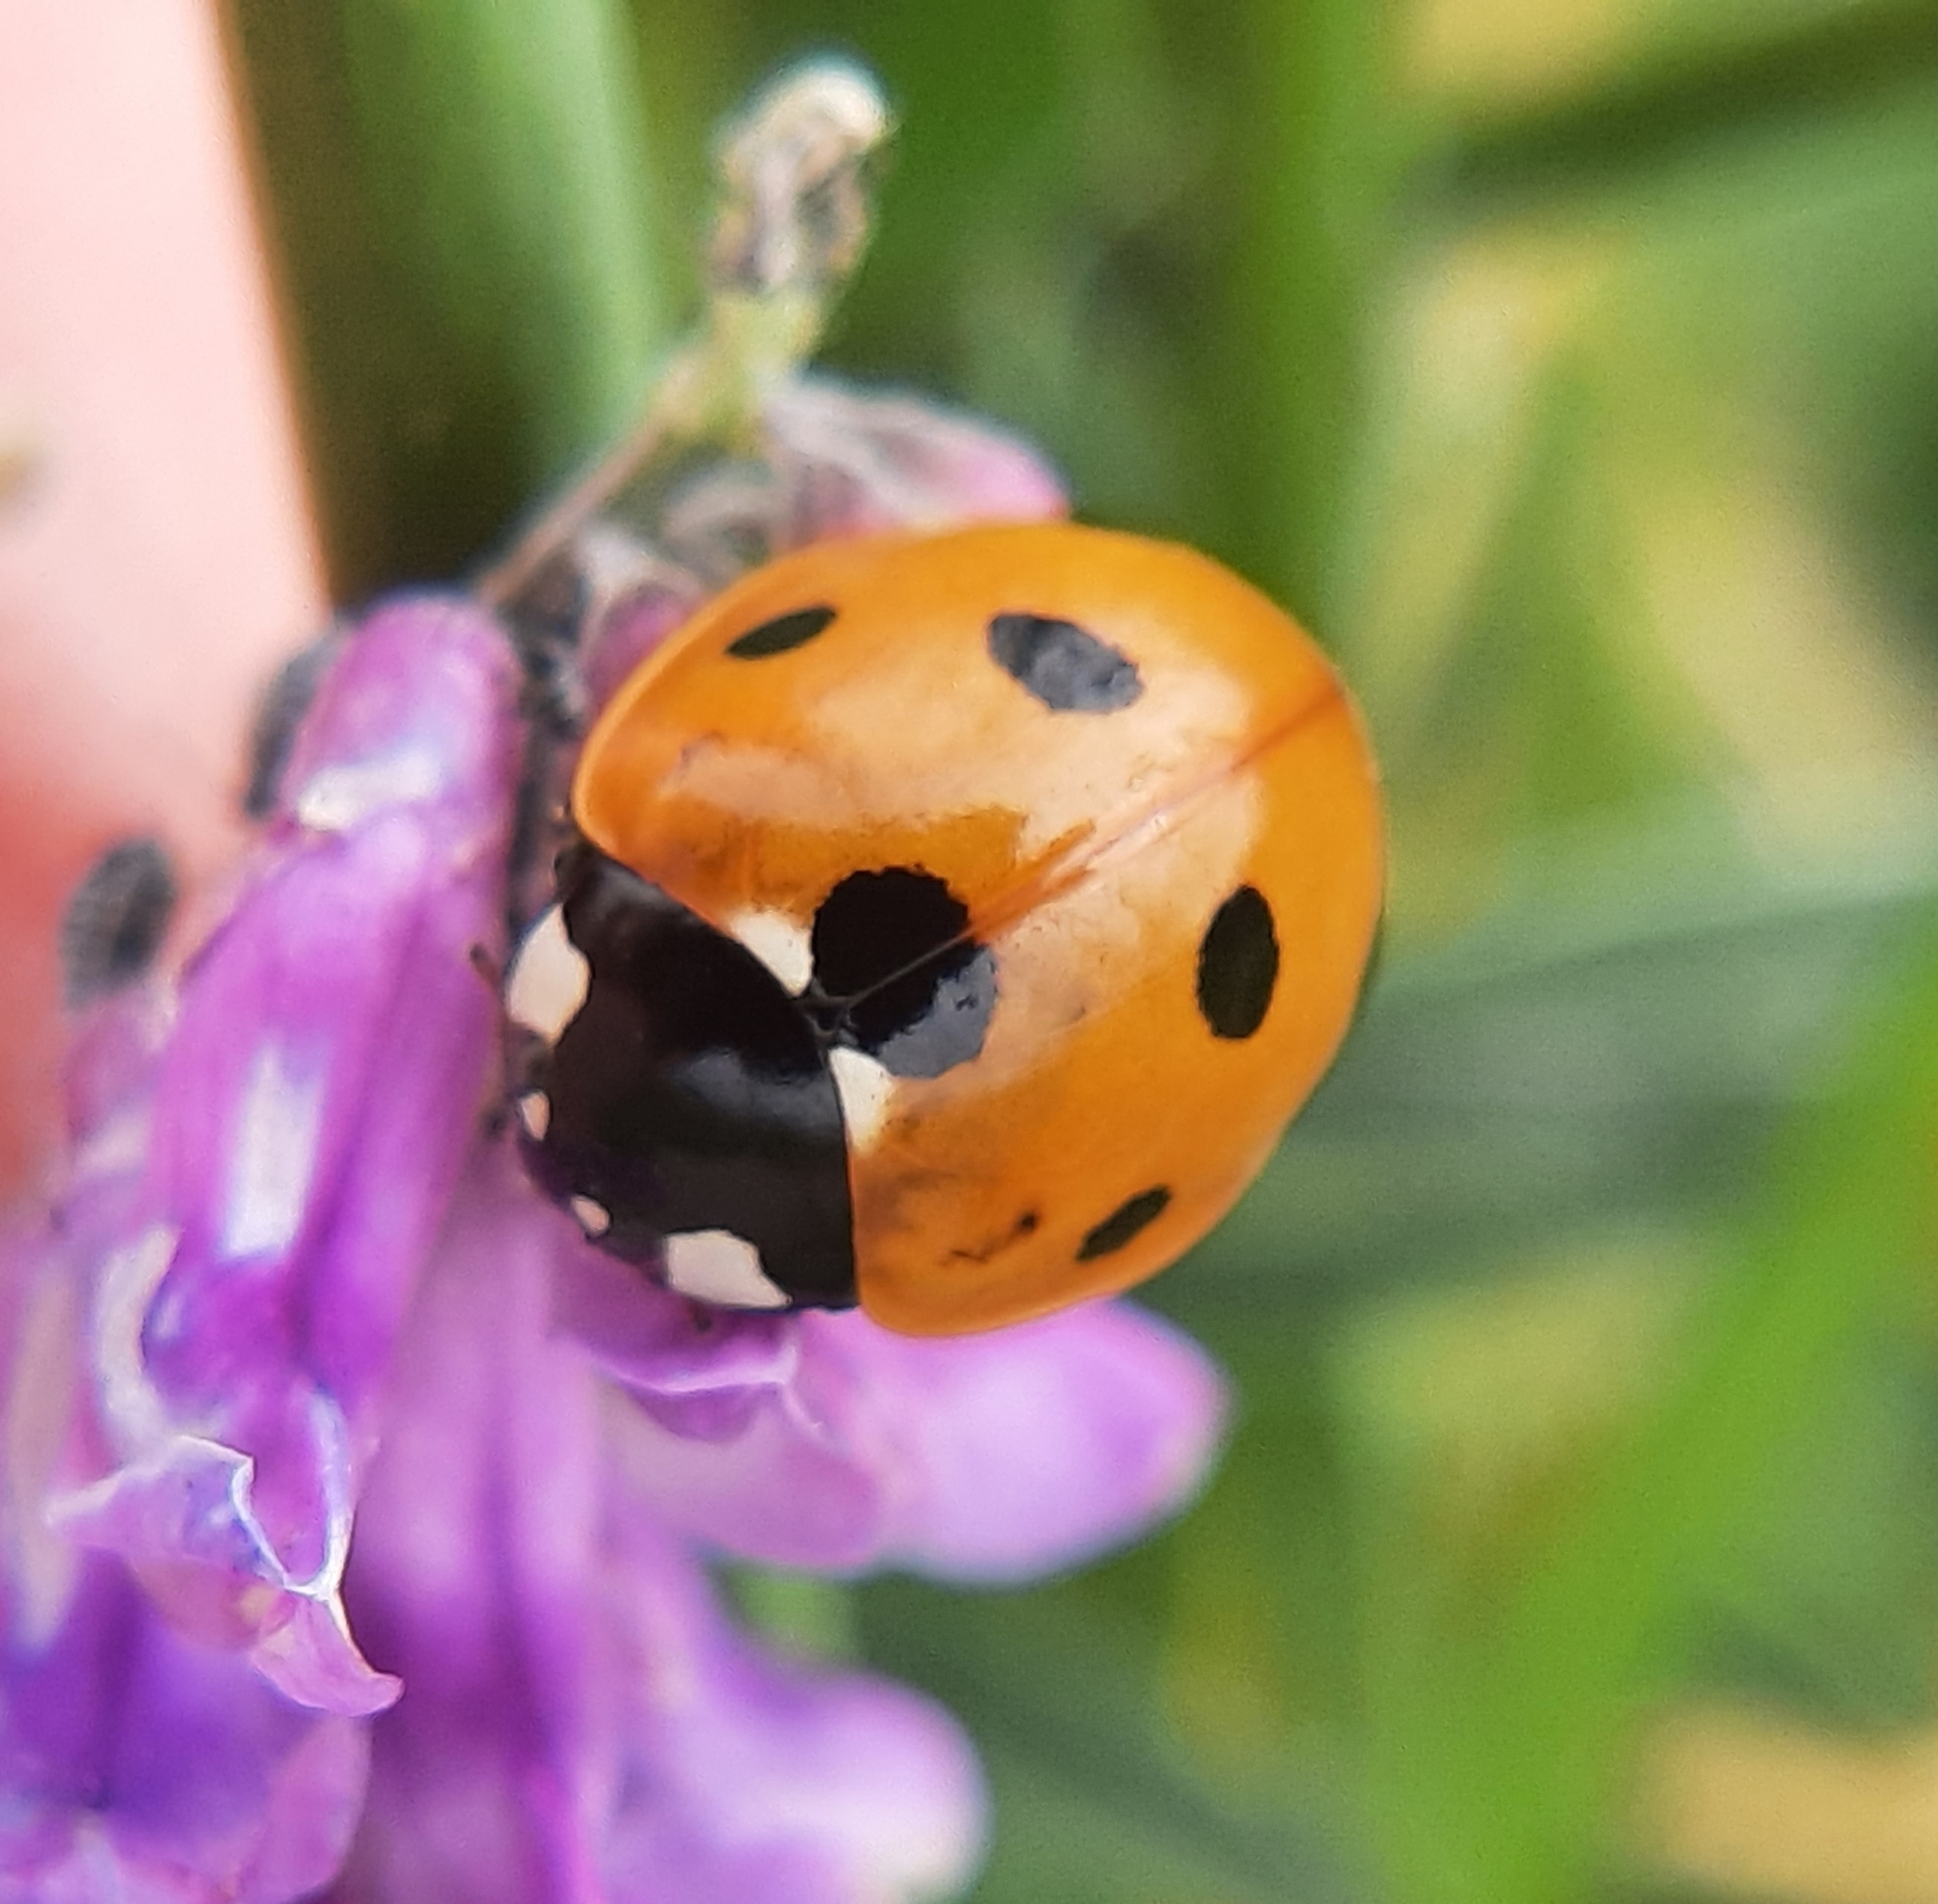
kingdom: Animalia
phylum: Arthropoda
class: Insecta
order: Coleoptera
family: Coccinellidae
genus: Coccinella
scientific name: Coccinella septempunctata
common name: Sevenspotted lady beetle
